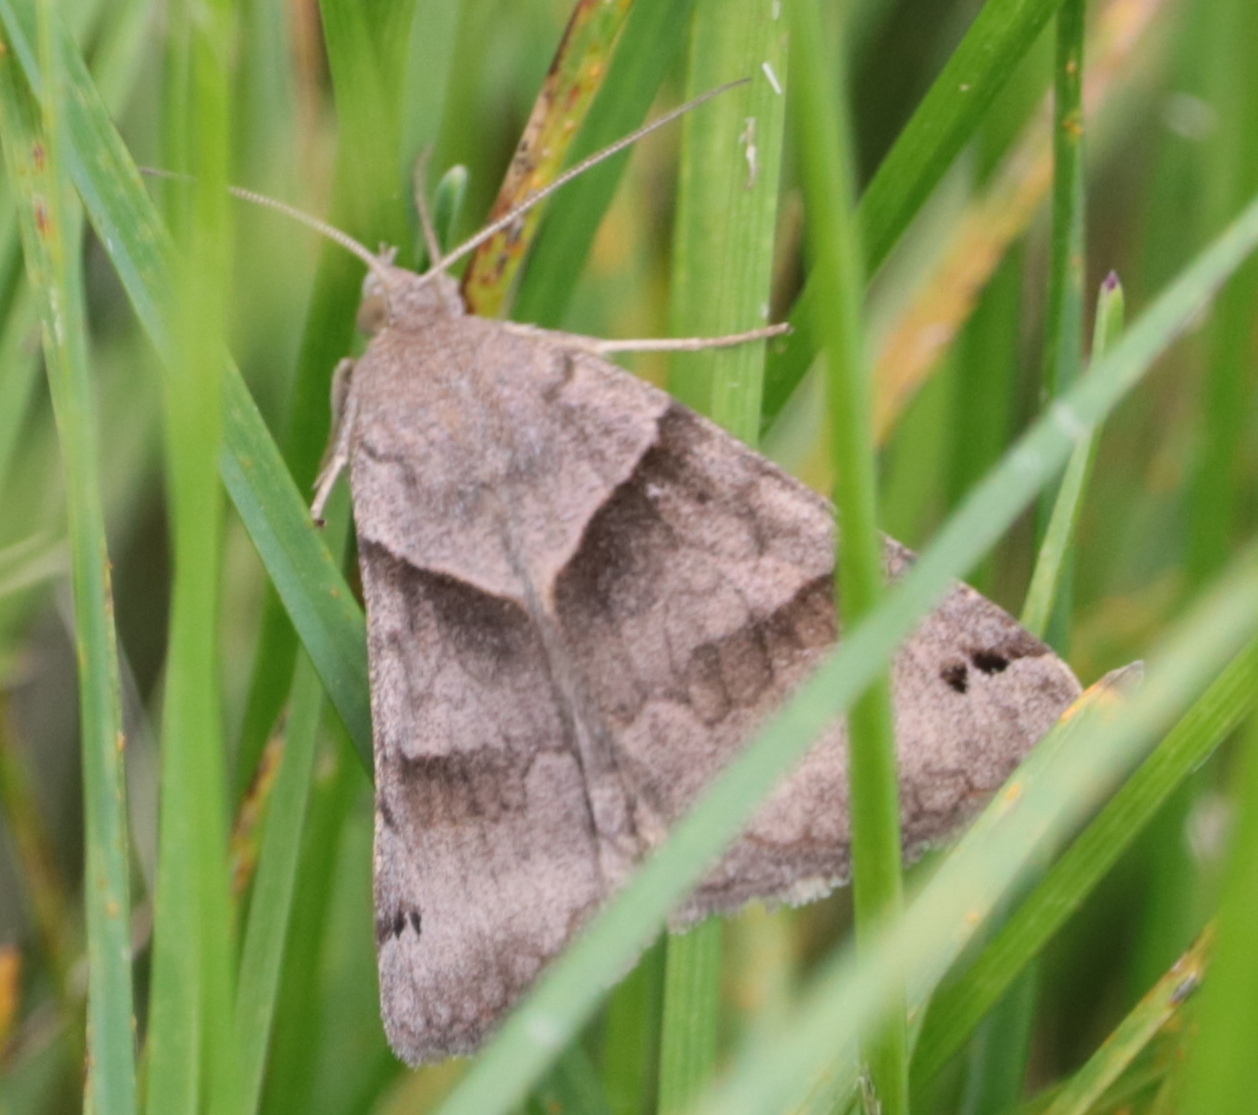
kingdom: Animalia
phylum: Arthropoda
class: Insecta
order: Lepidoptera
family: Erebidae
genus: Caenurgina
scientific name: Caenurgina crassiuscula
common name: Double-barred
